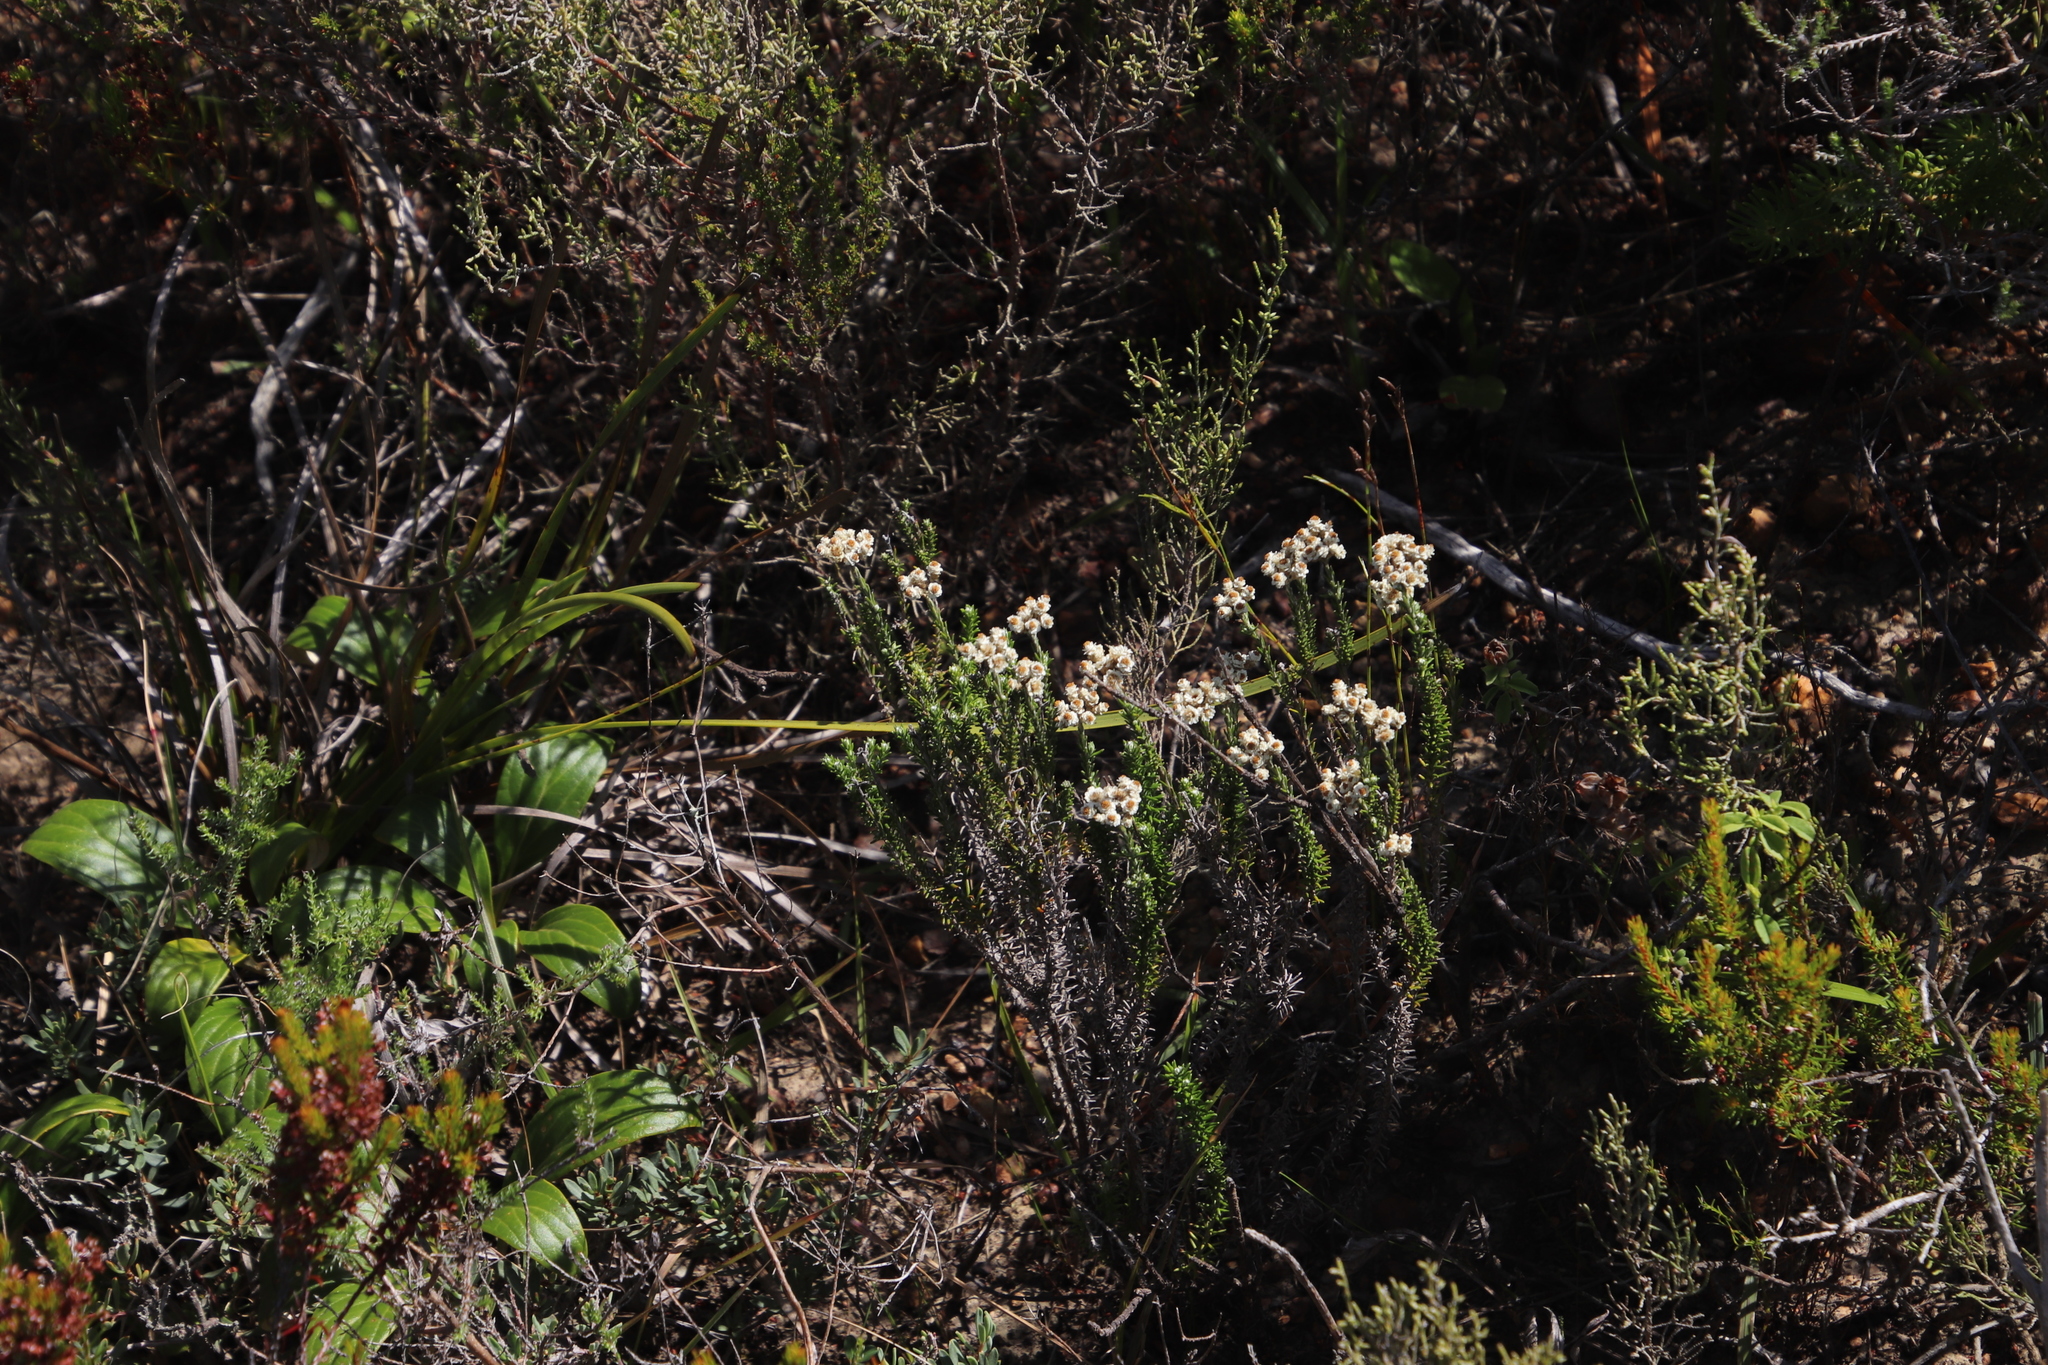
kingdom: Plantae
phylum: Tracheophyta
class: Magnoliopsida
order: Asterales
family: Asteraceae
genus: Helichrysum
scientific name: Helichrysum teretifolium
